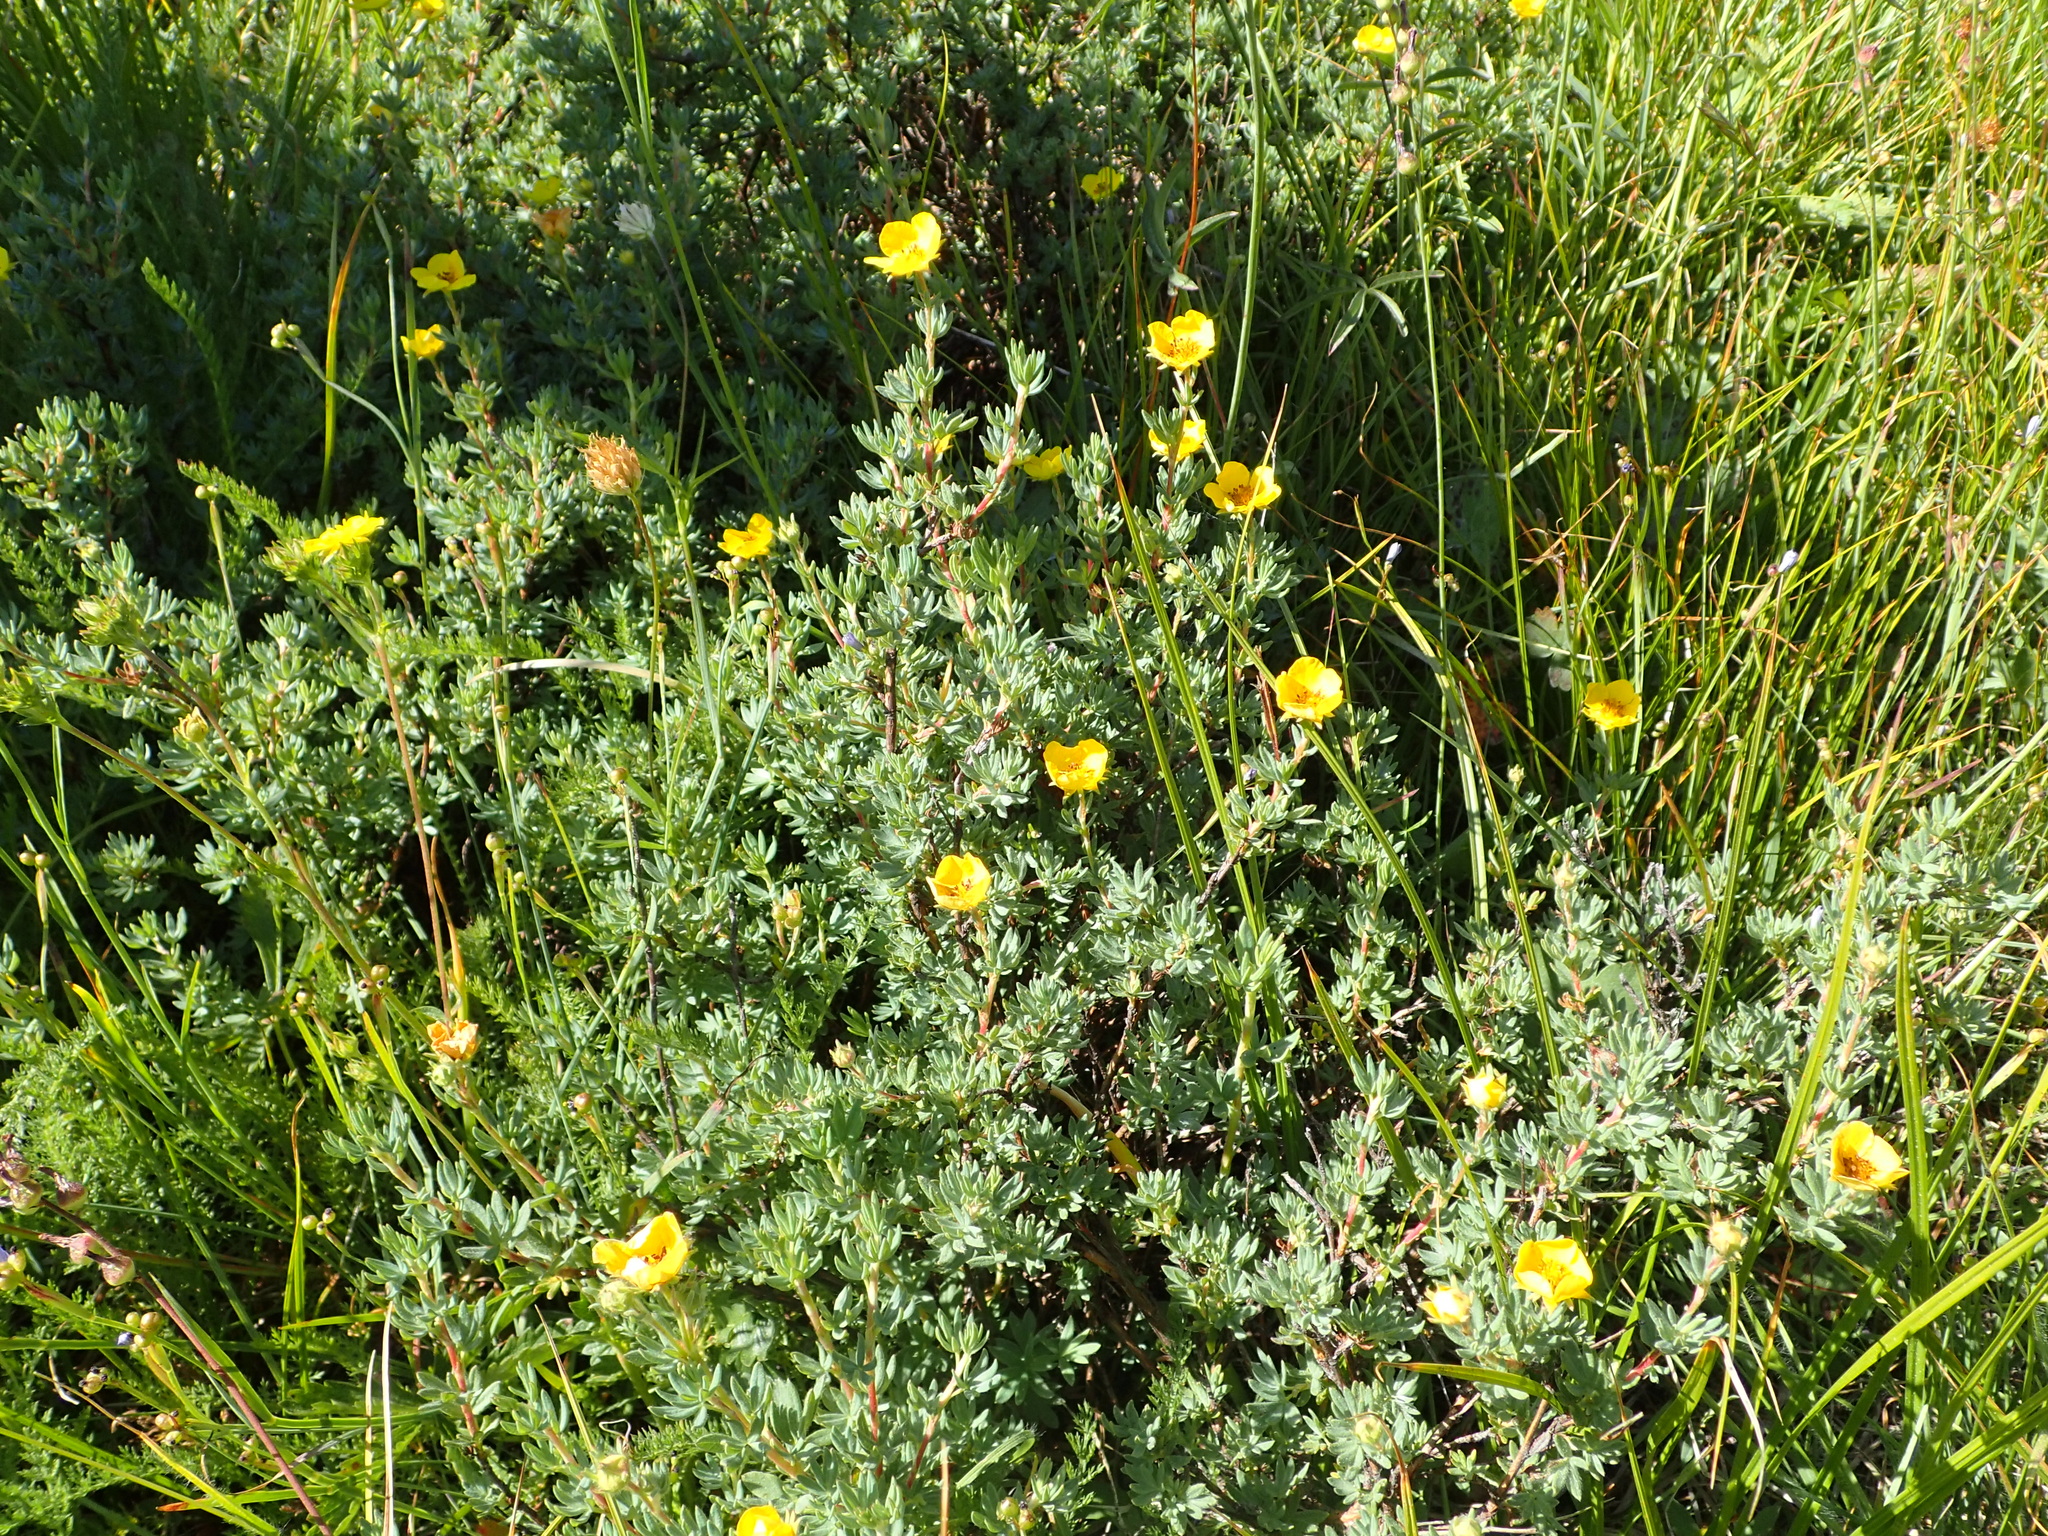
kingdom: Plantae
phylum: Tracheophyta
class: Magnoliopsida
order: Rosales
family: Rosaceae
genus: Dasiphora
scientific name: Dasiphora fruticosa
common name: Shrubby cinquefoil
